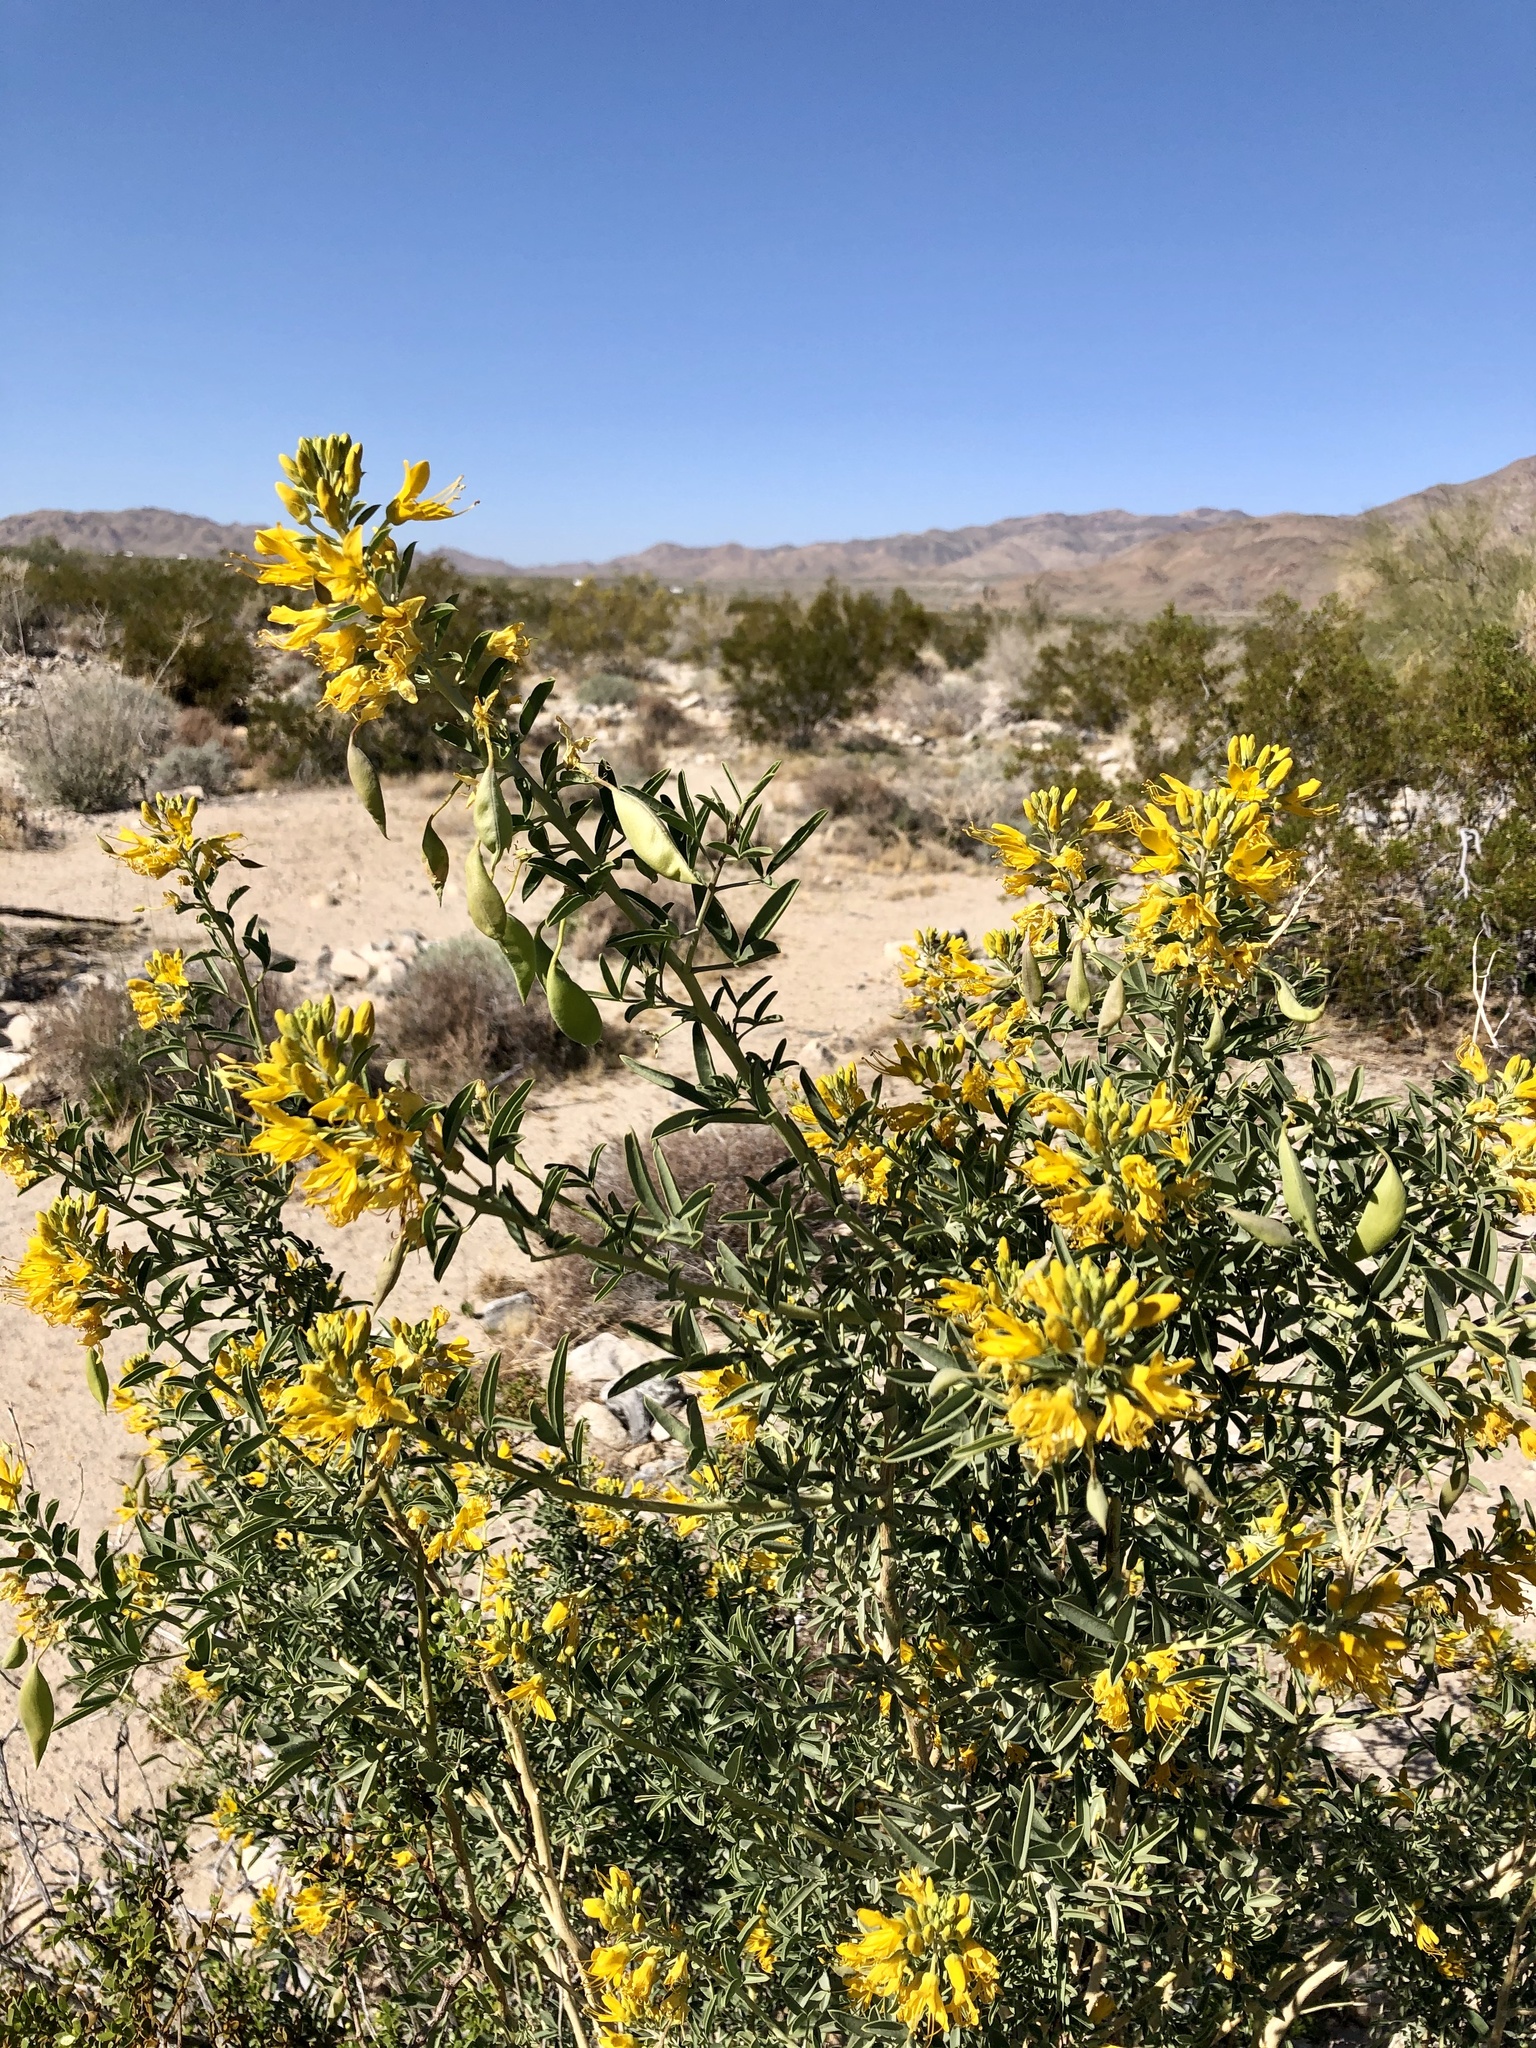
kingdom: Plantae
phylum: Tracheophyta
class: Magnoliopsida
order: Brassicales
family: Cleomaceae
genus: Cleomella
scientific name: Cleomella arborea
